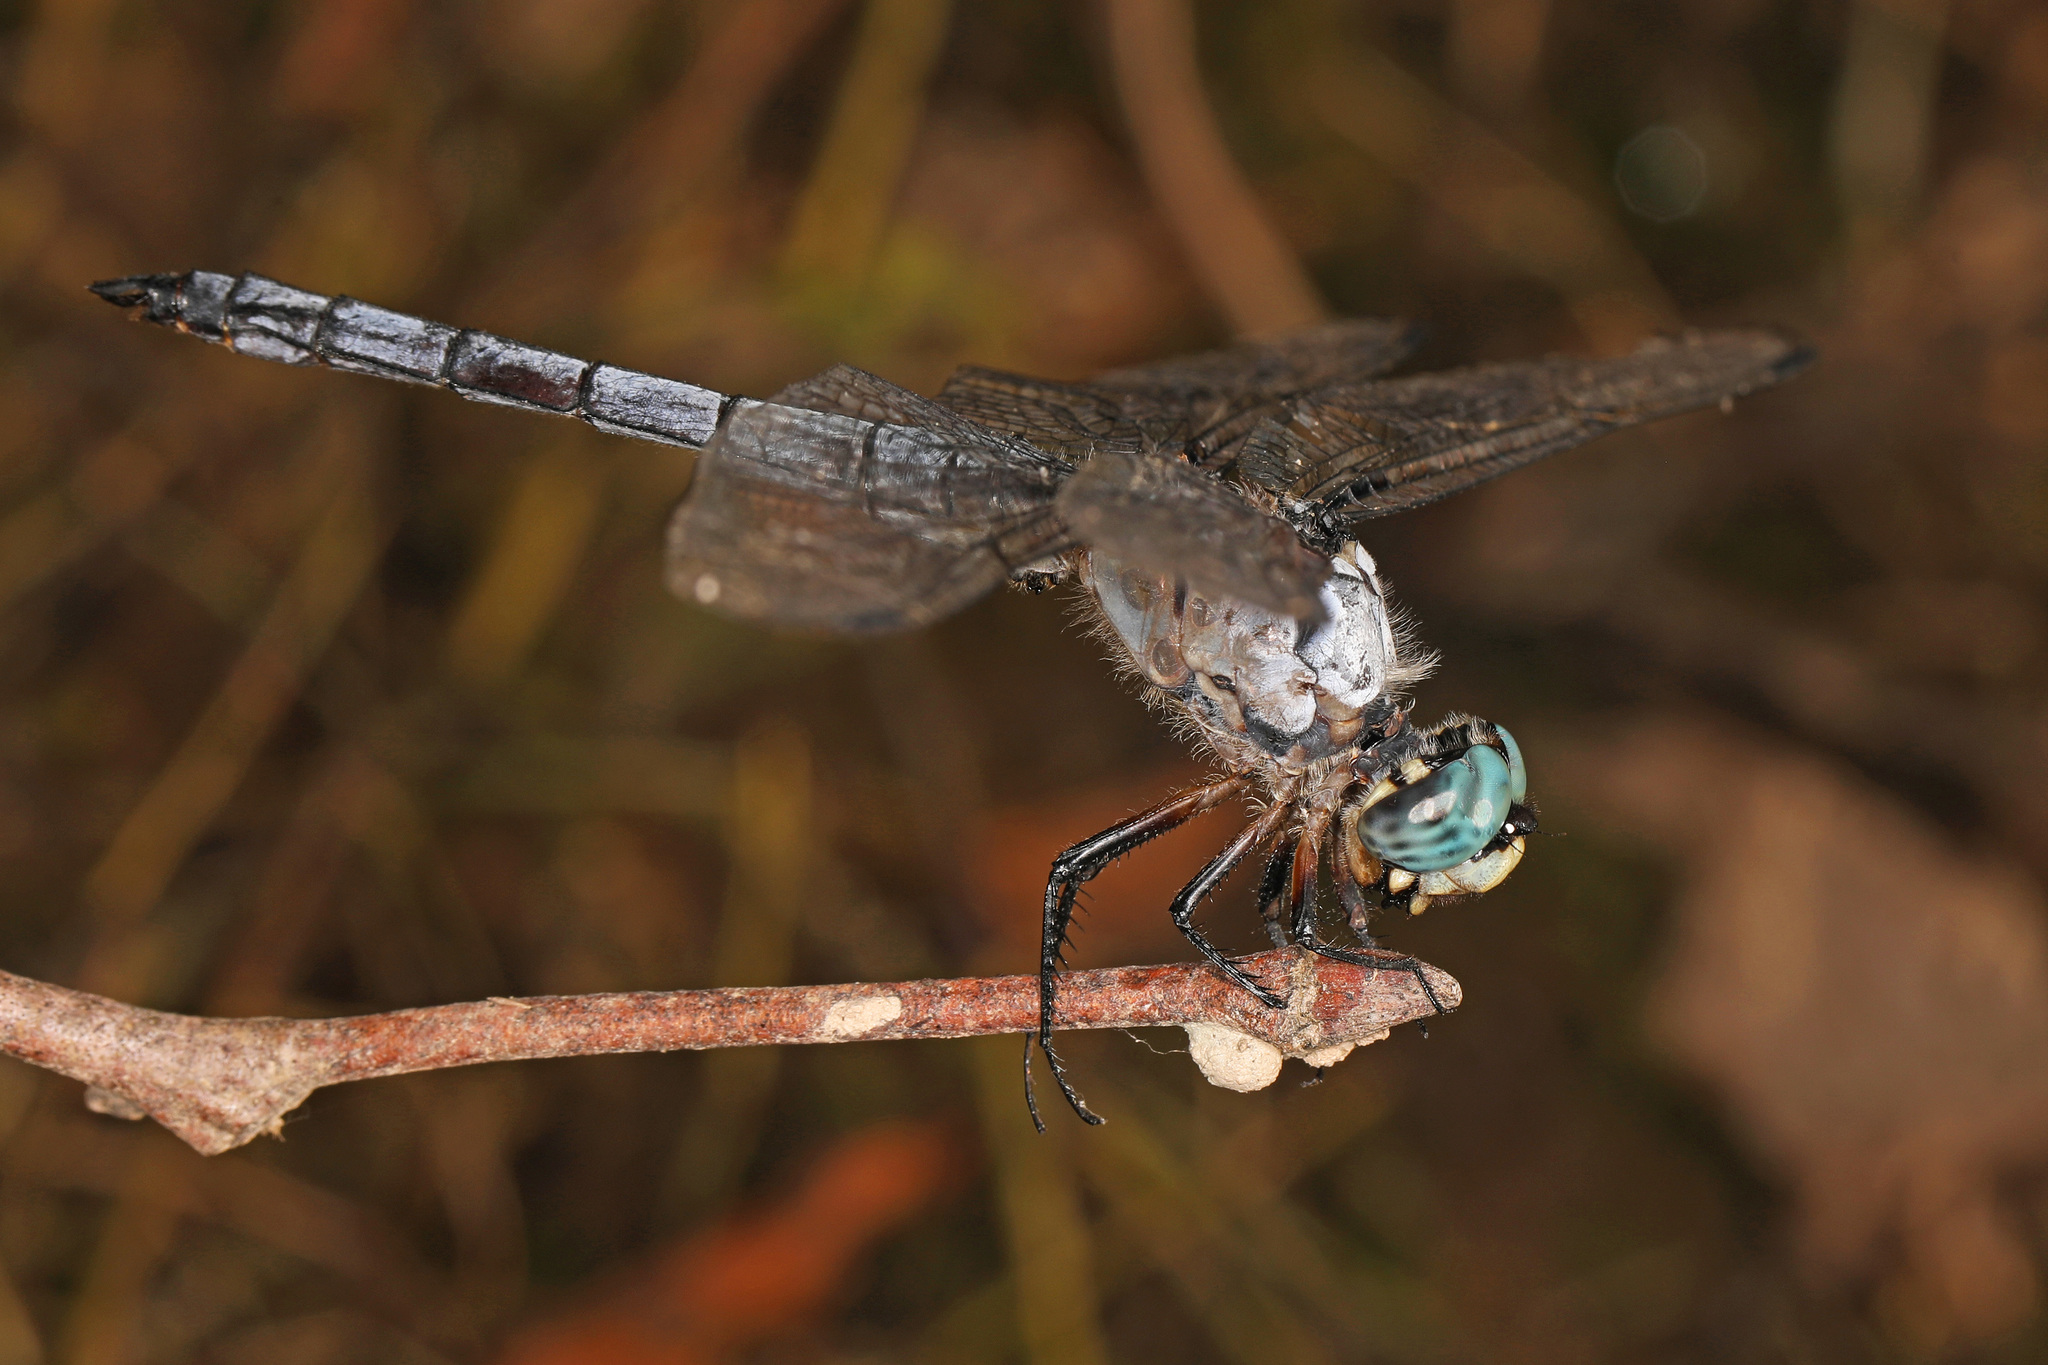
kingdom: Animalia
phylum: Arthropoda
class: Insecta
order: Odonata
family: Libellulidae
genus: Libellula
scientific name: Libellula vibrans
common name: Great blue skimmer
